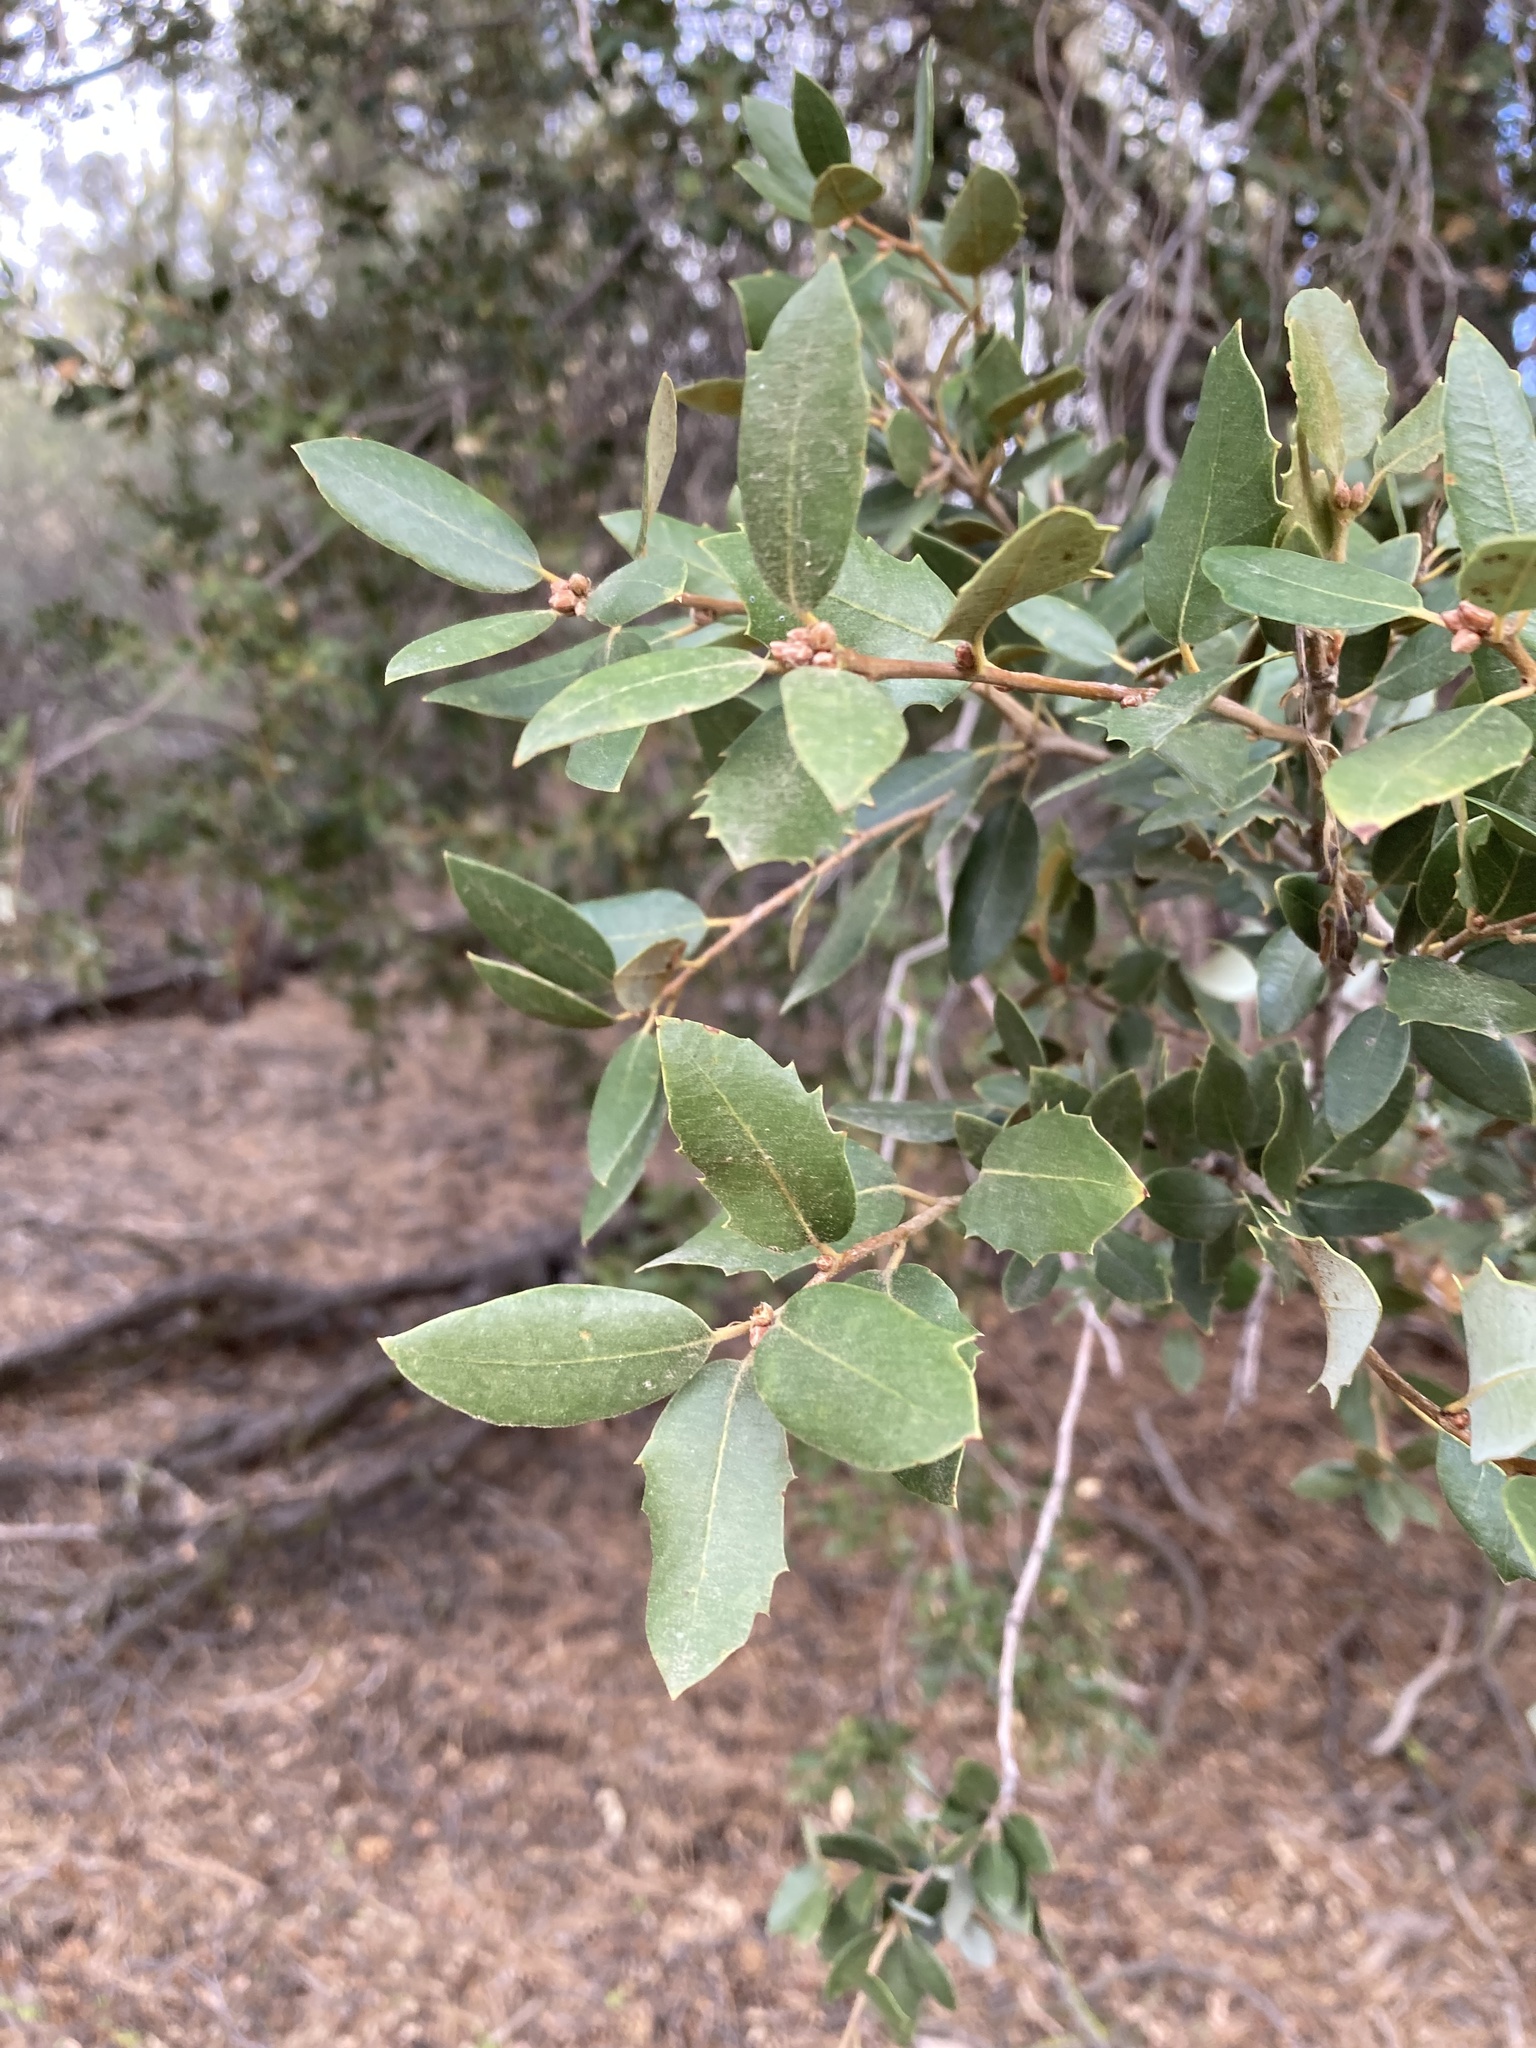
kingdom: Plantae
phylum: Tracheophyta
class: Magnoliopsida
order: Fagales
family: Fagaceae
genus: Quercus
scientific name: Quercus chrysolepis
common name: Canyon live oak
